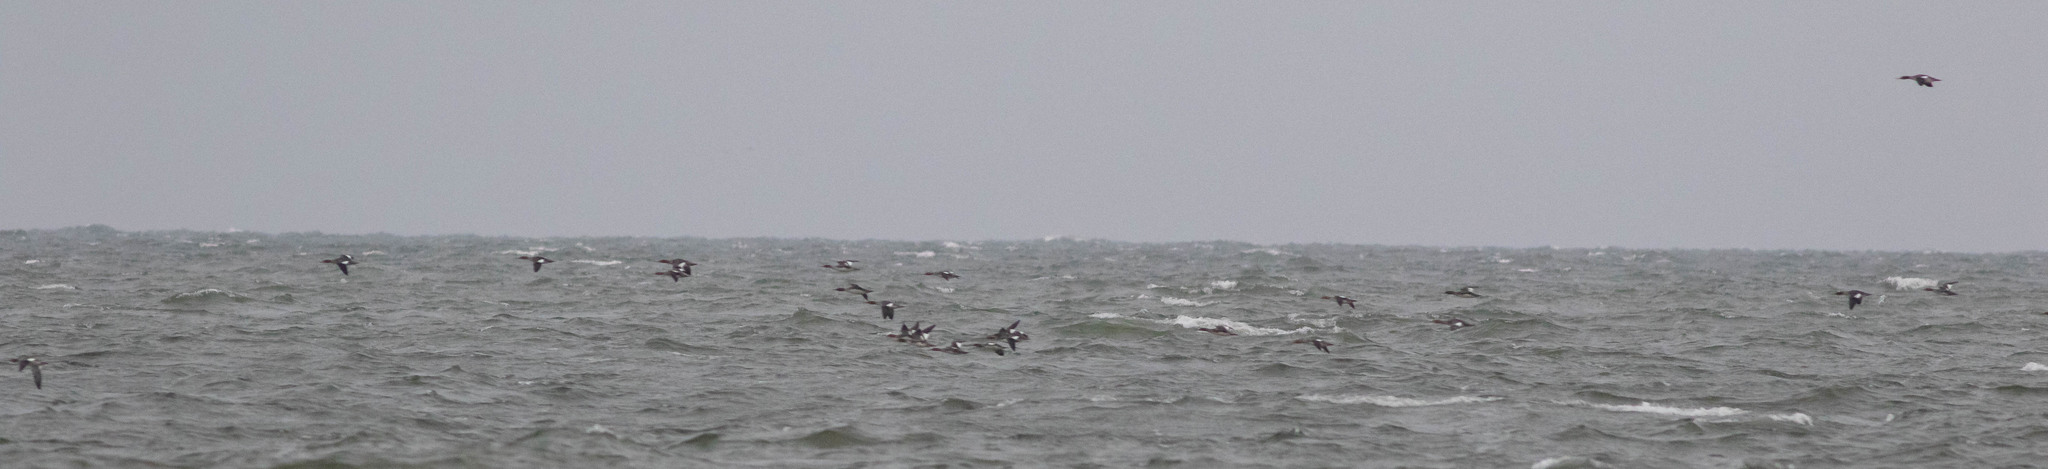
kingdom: Animalia
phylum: Chordata
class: Aves
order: Anseriformes
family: Anatidae
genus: Mergus
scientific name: Mergus serrator
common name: Red-breasted merganser
